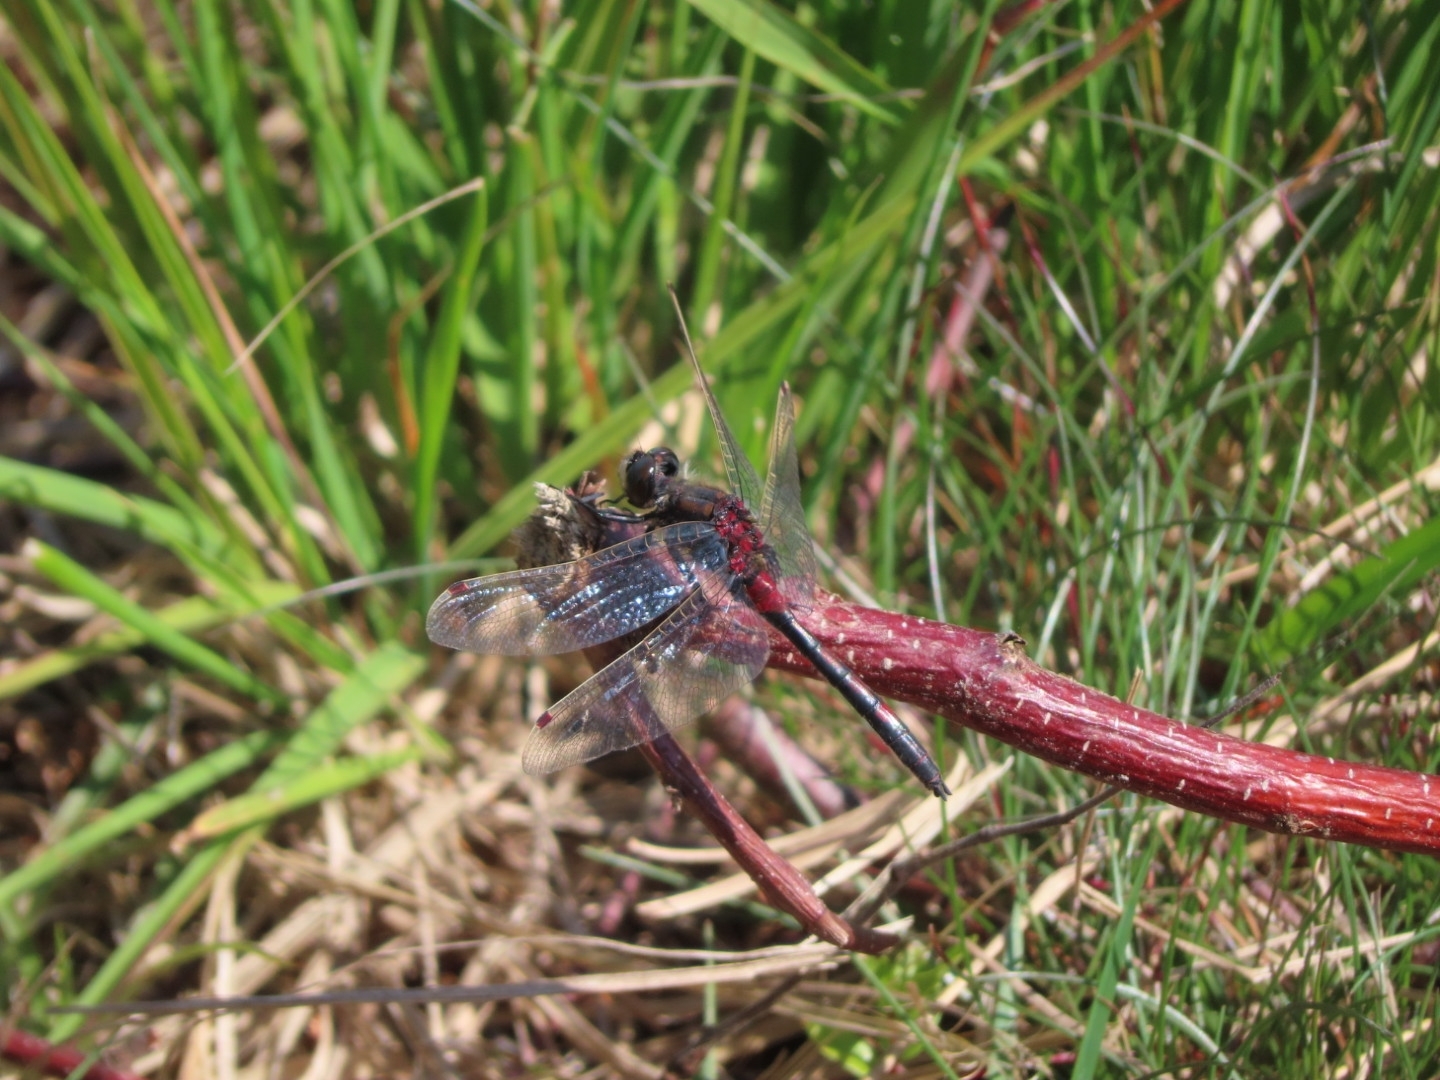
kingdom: Animalia
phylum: Arthropoda
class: Insecta
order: Odonata
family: Libellulidae
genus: Leucorrhinia
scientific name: Leucorrhinia rubicunda
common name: Ruby whiteface
